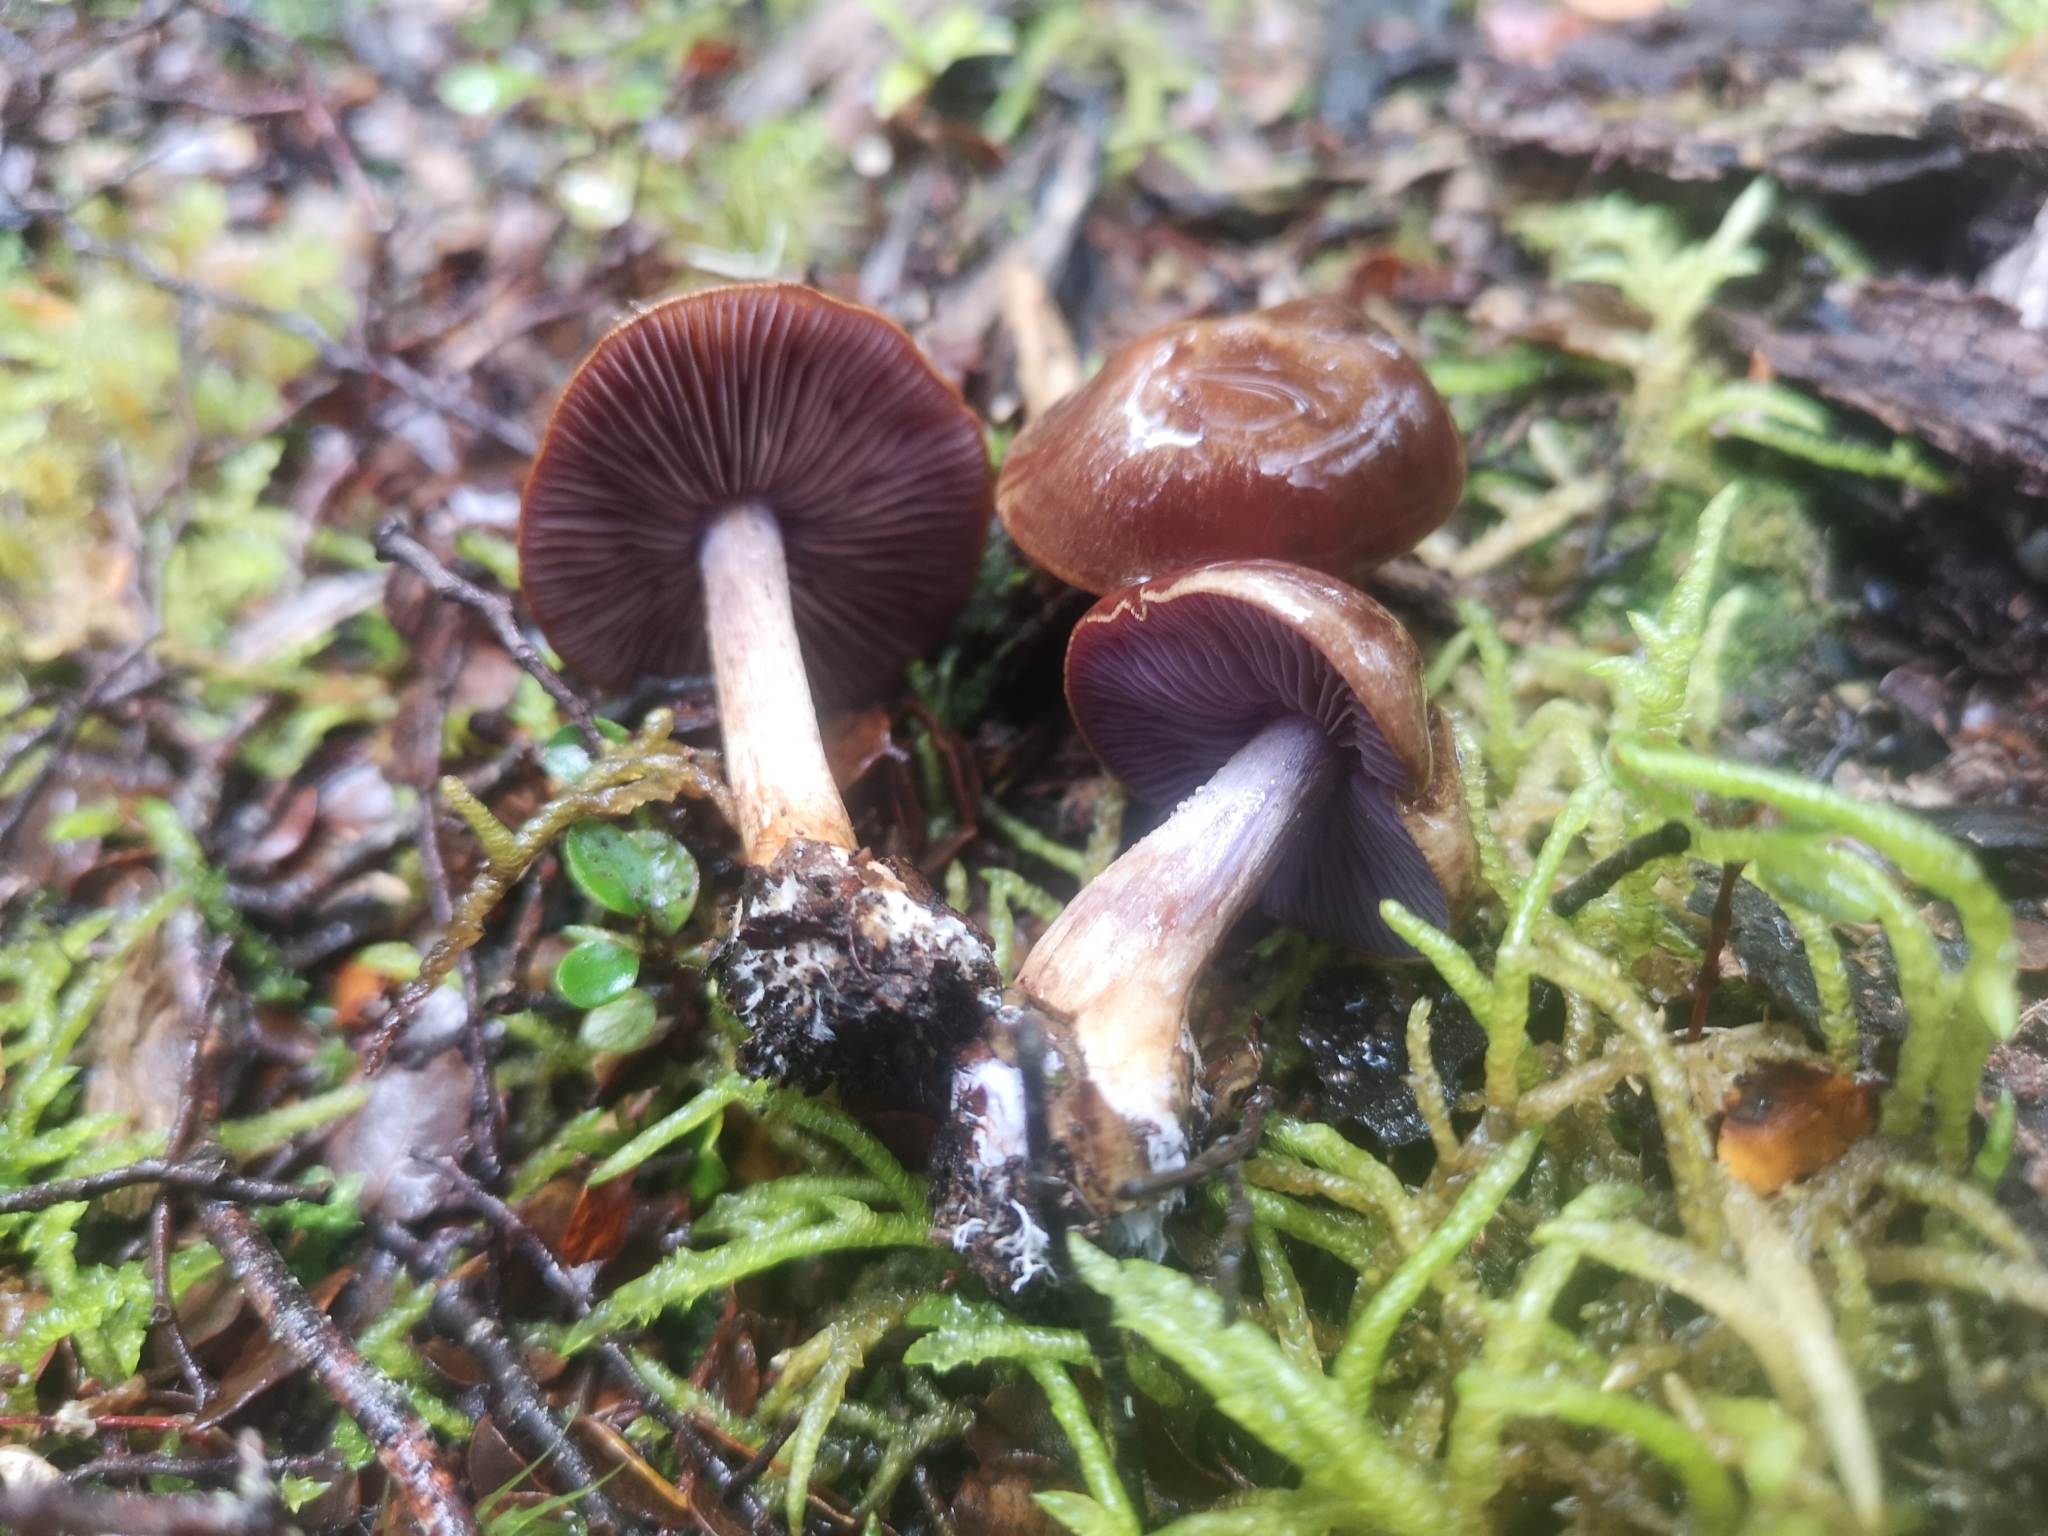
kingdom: Fungi
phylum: Basidiomycota
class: Agaricomycetes
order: Agaricales
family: Cortinariaceae
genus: Thaxterogaster
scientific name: Thaxterogaster chalybeus
